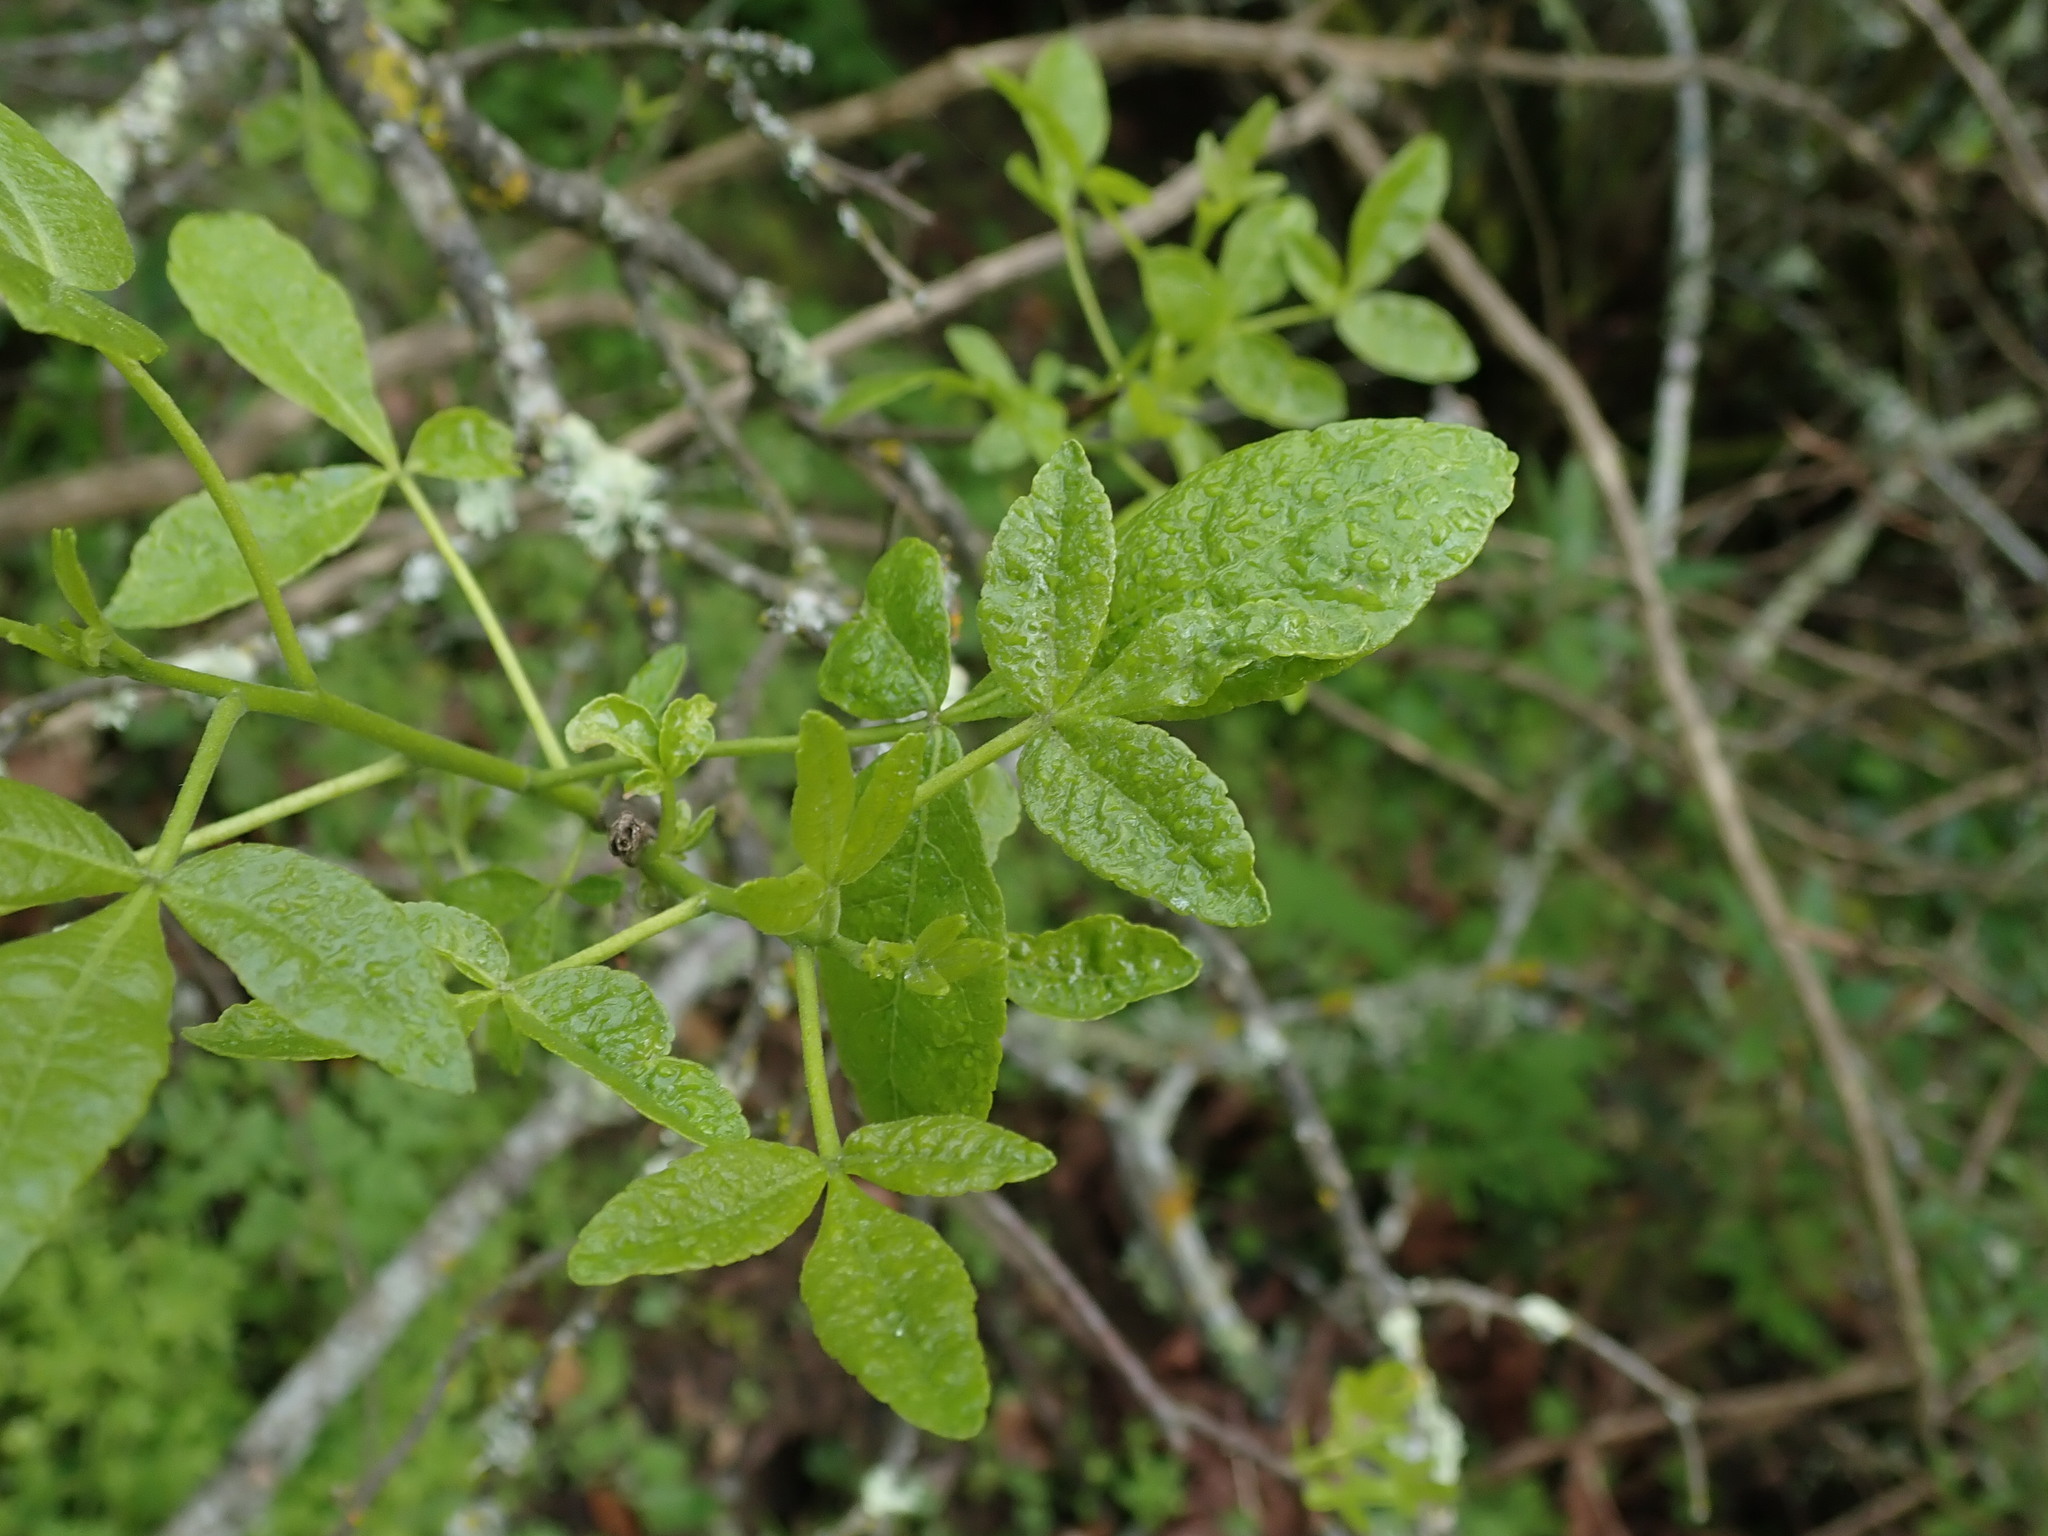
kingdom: Plantae
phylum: Tracheophyta
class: Magnoliopsida
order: Sapindales
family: Rutaceae
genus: Ptelea
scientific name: Ptelea crenulata
